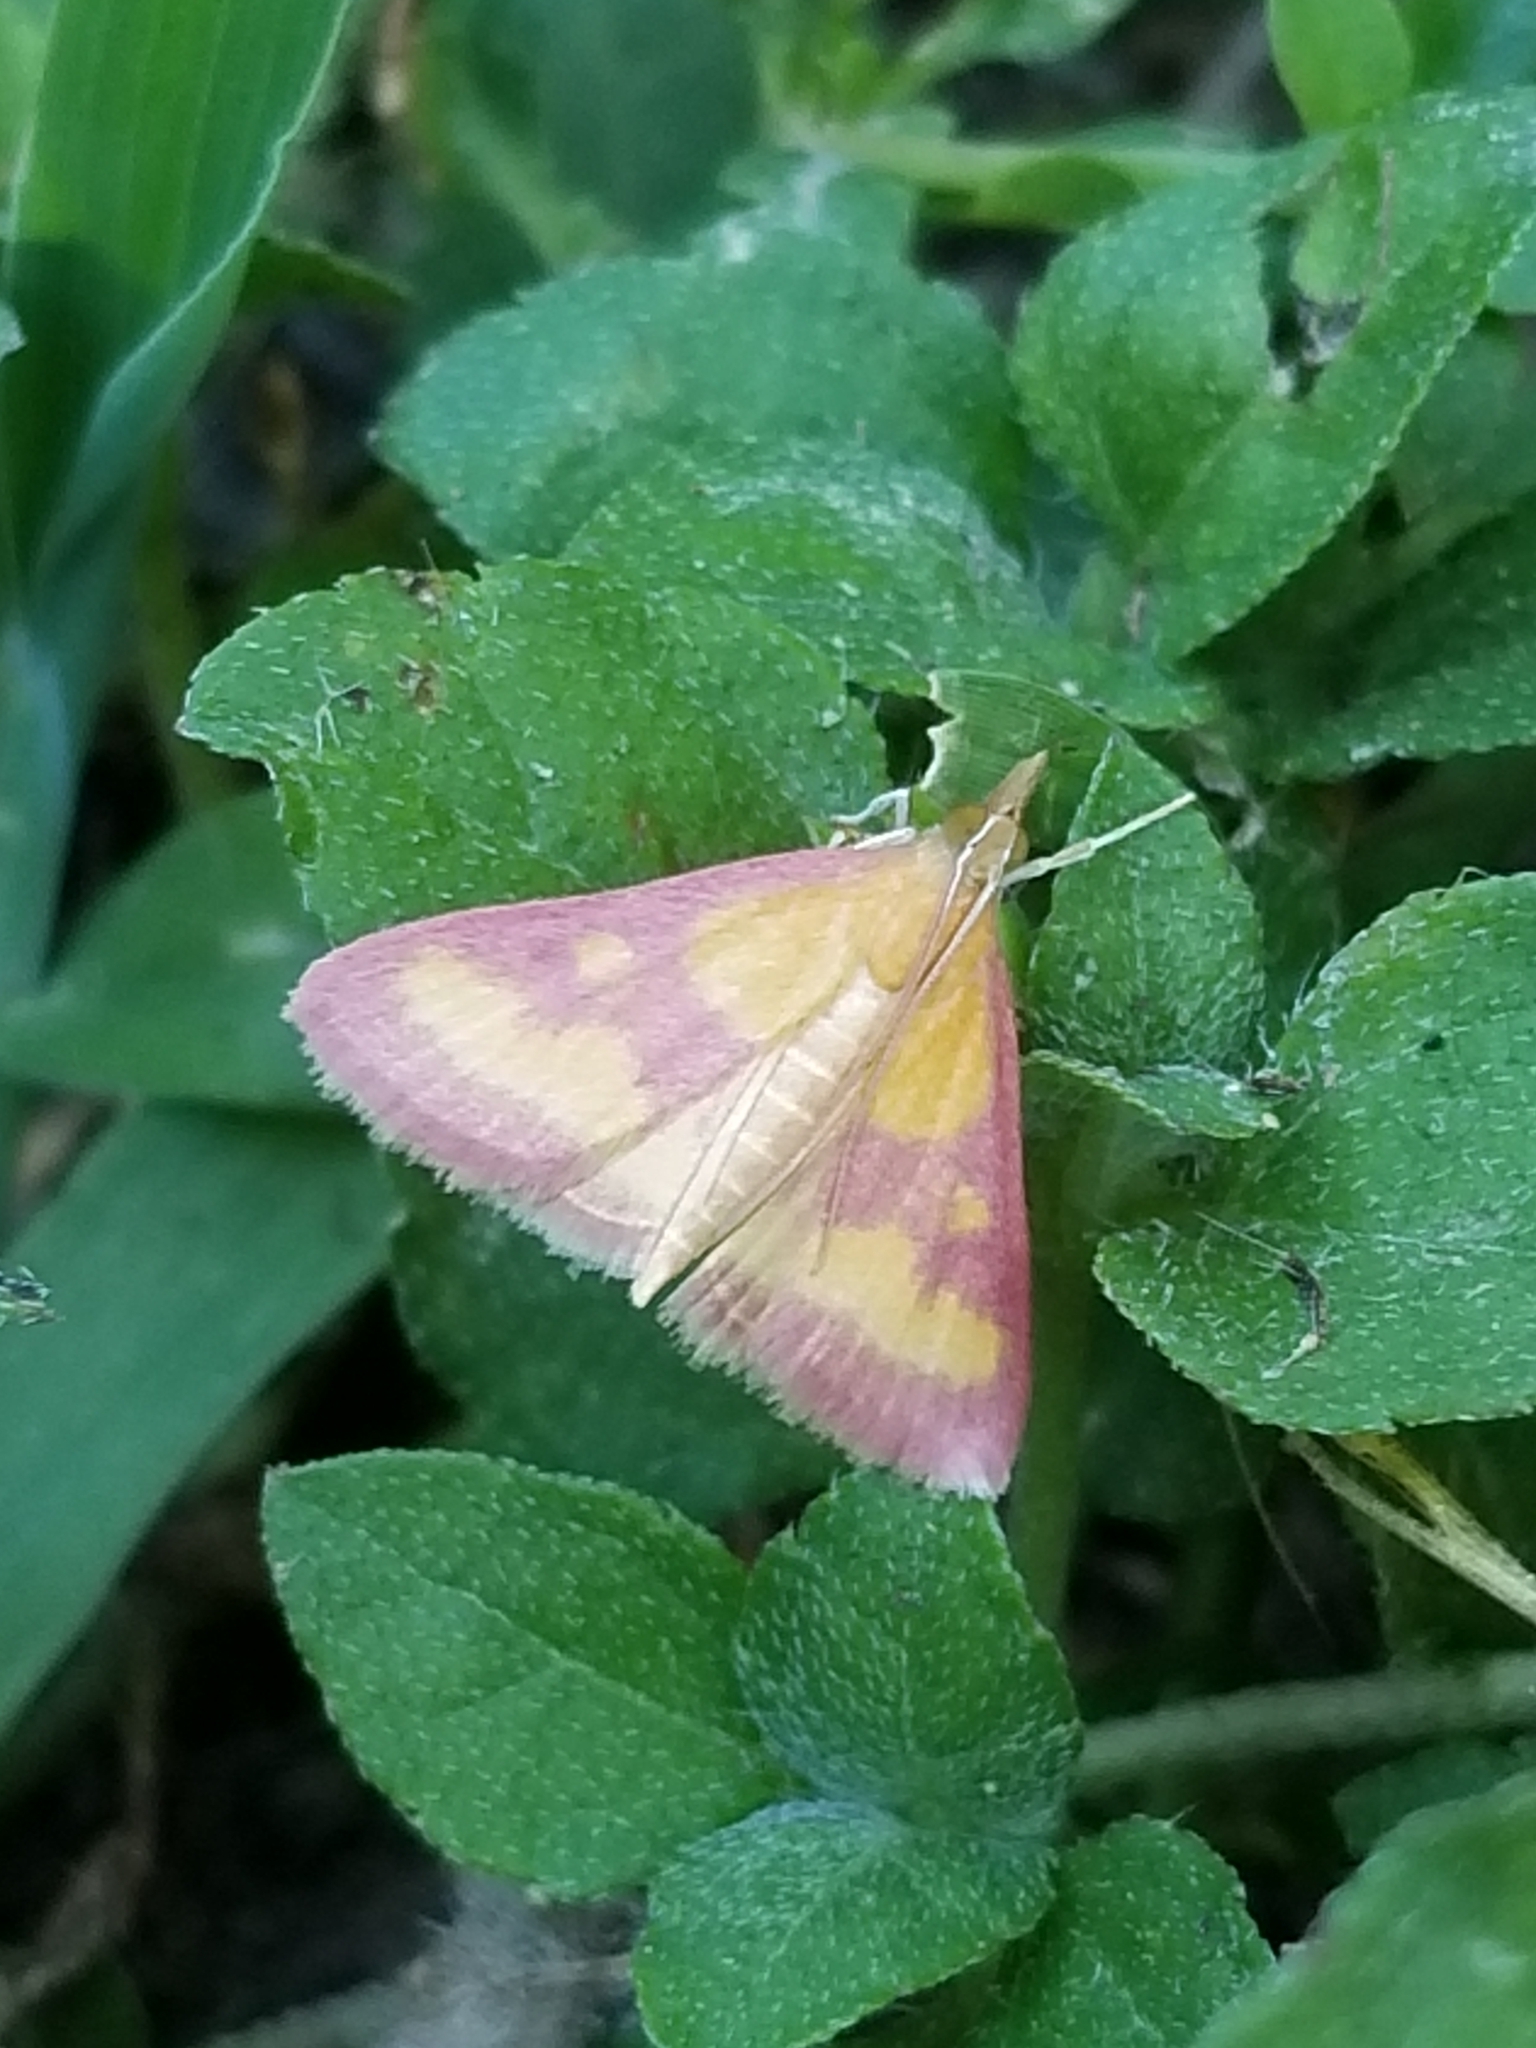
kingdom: Animalia
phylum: Arthropoda
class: Insecta
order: Lepidoptera
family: Crambidae
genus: Pyrausta
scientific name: Pyrausta laticlavia
